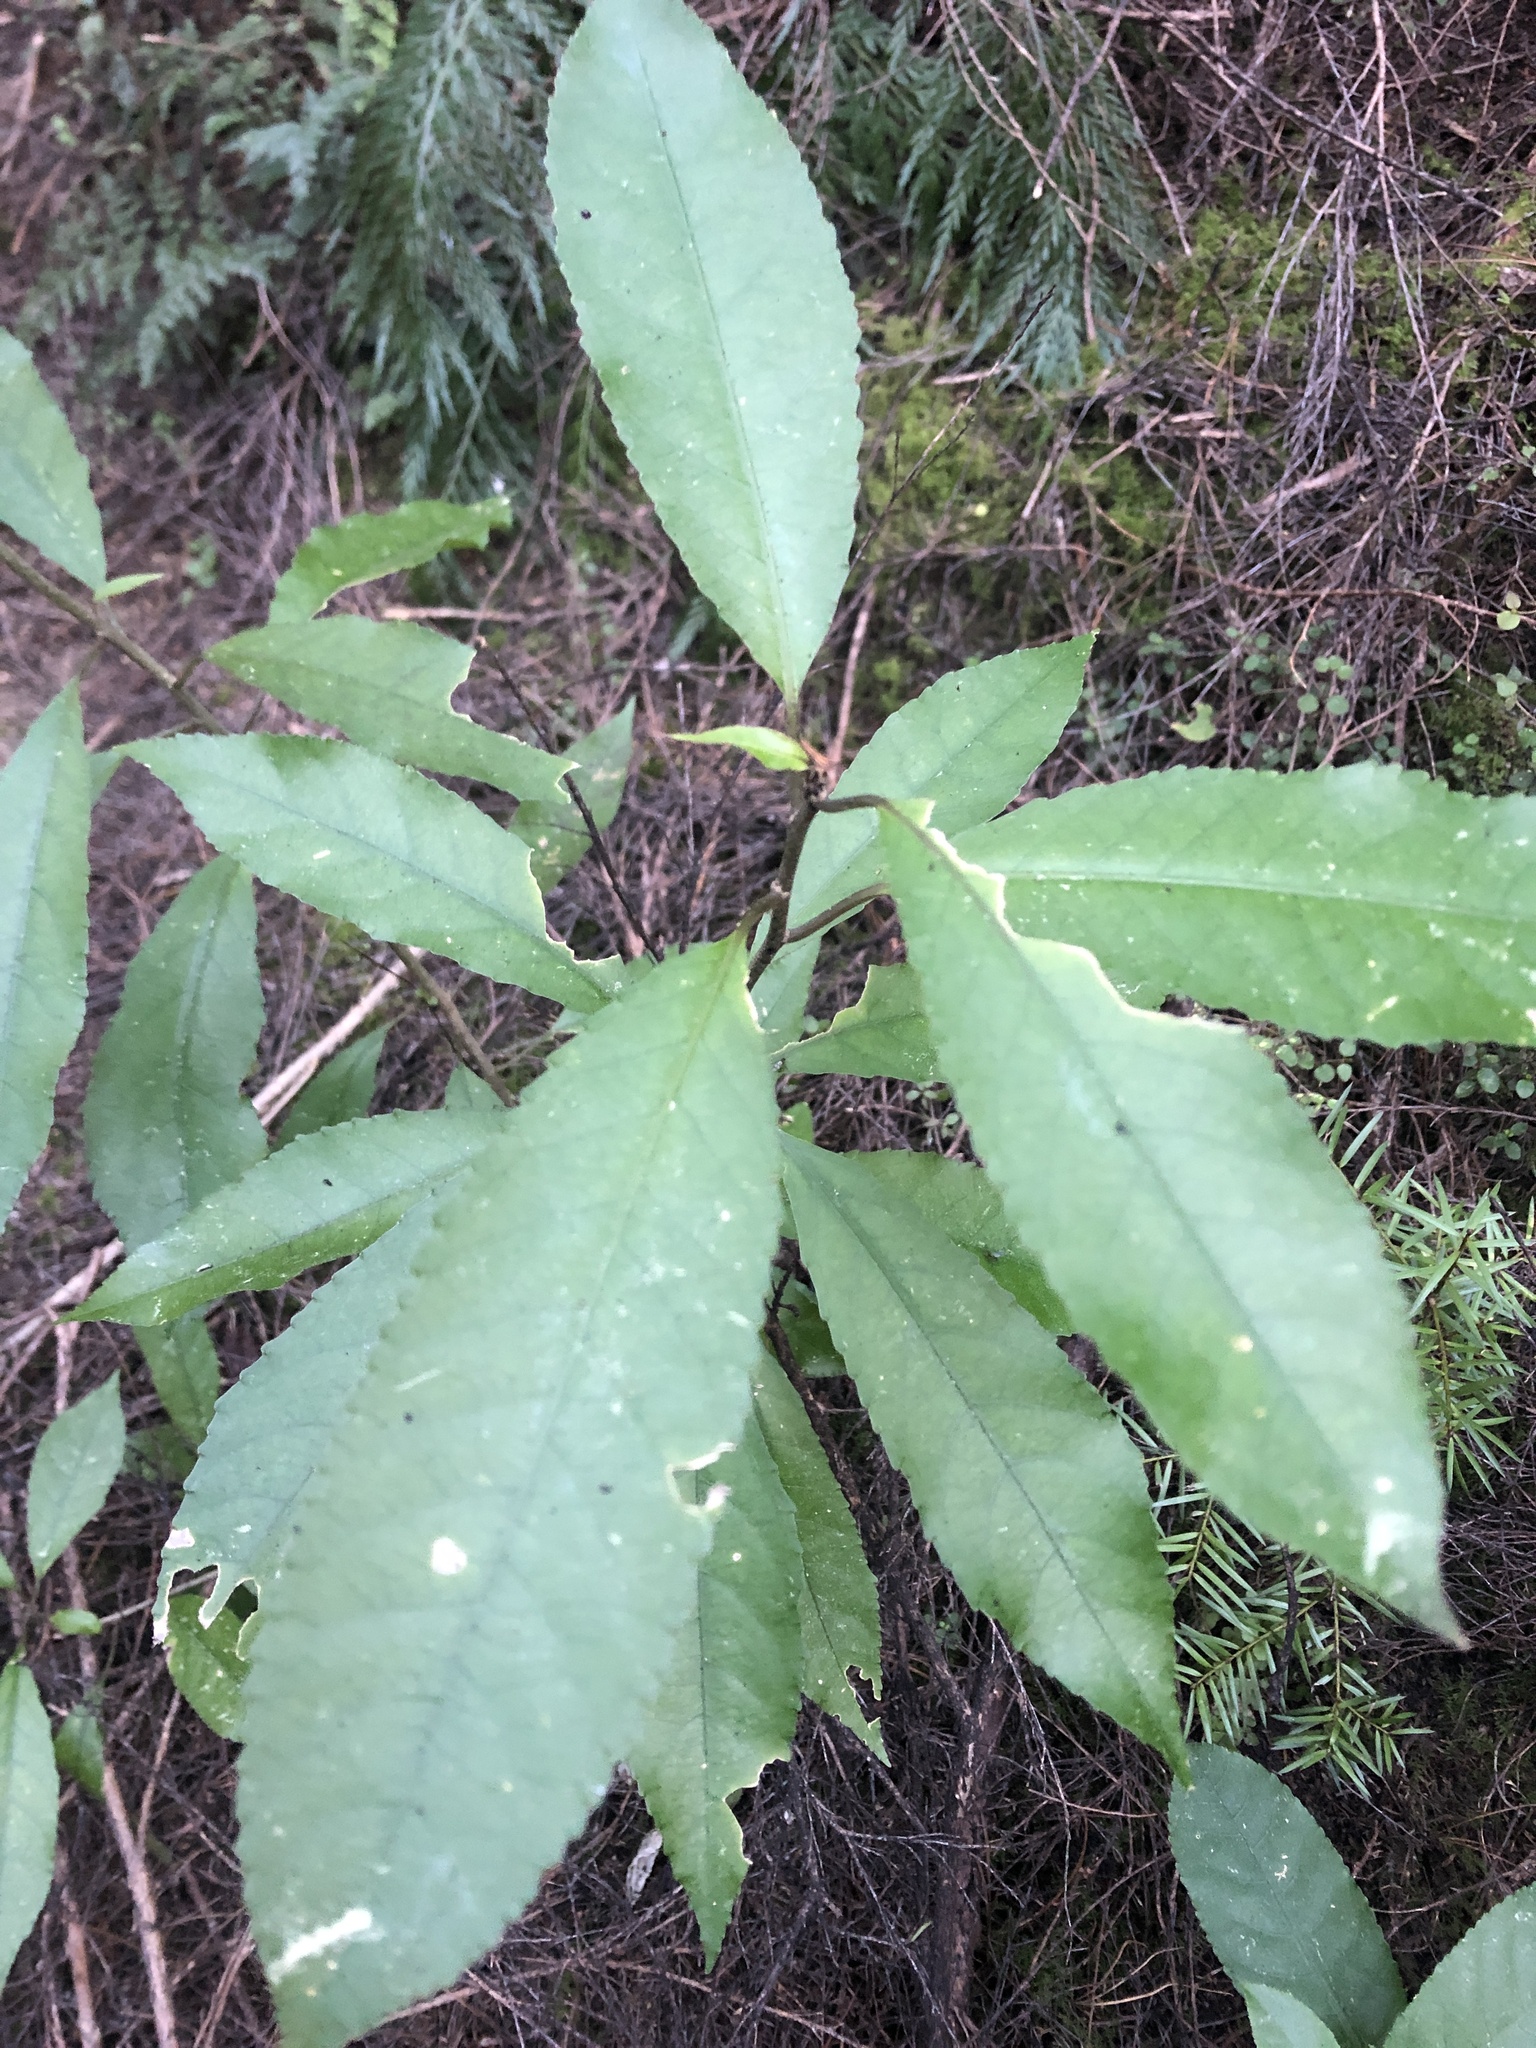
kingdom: Plantae
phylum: Tracheophyta
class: Magnoliopsida
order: Malpighiales
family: Violaceae
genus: Melicytus
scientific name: Melicytus ramiflorus
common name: Mahoe
